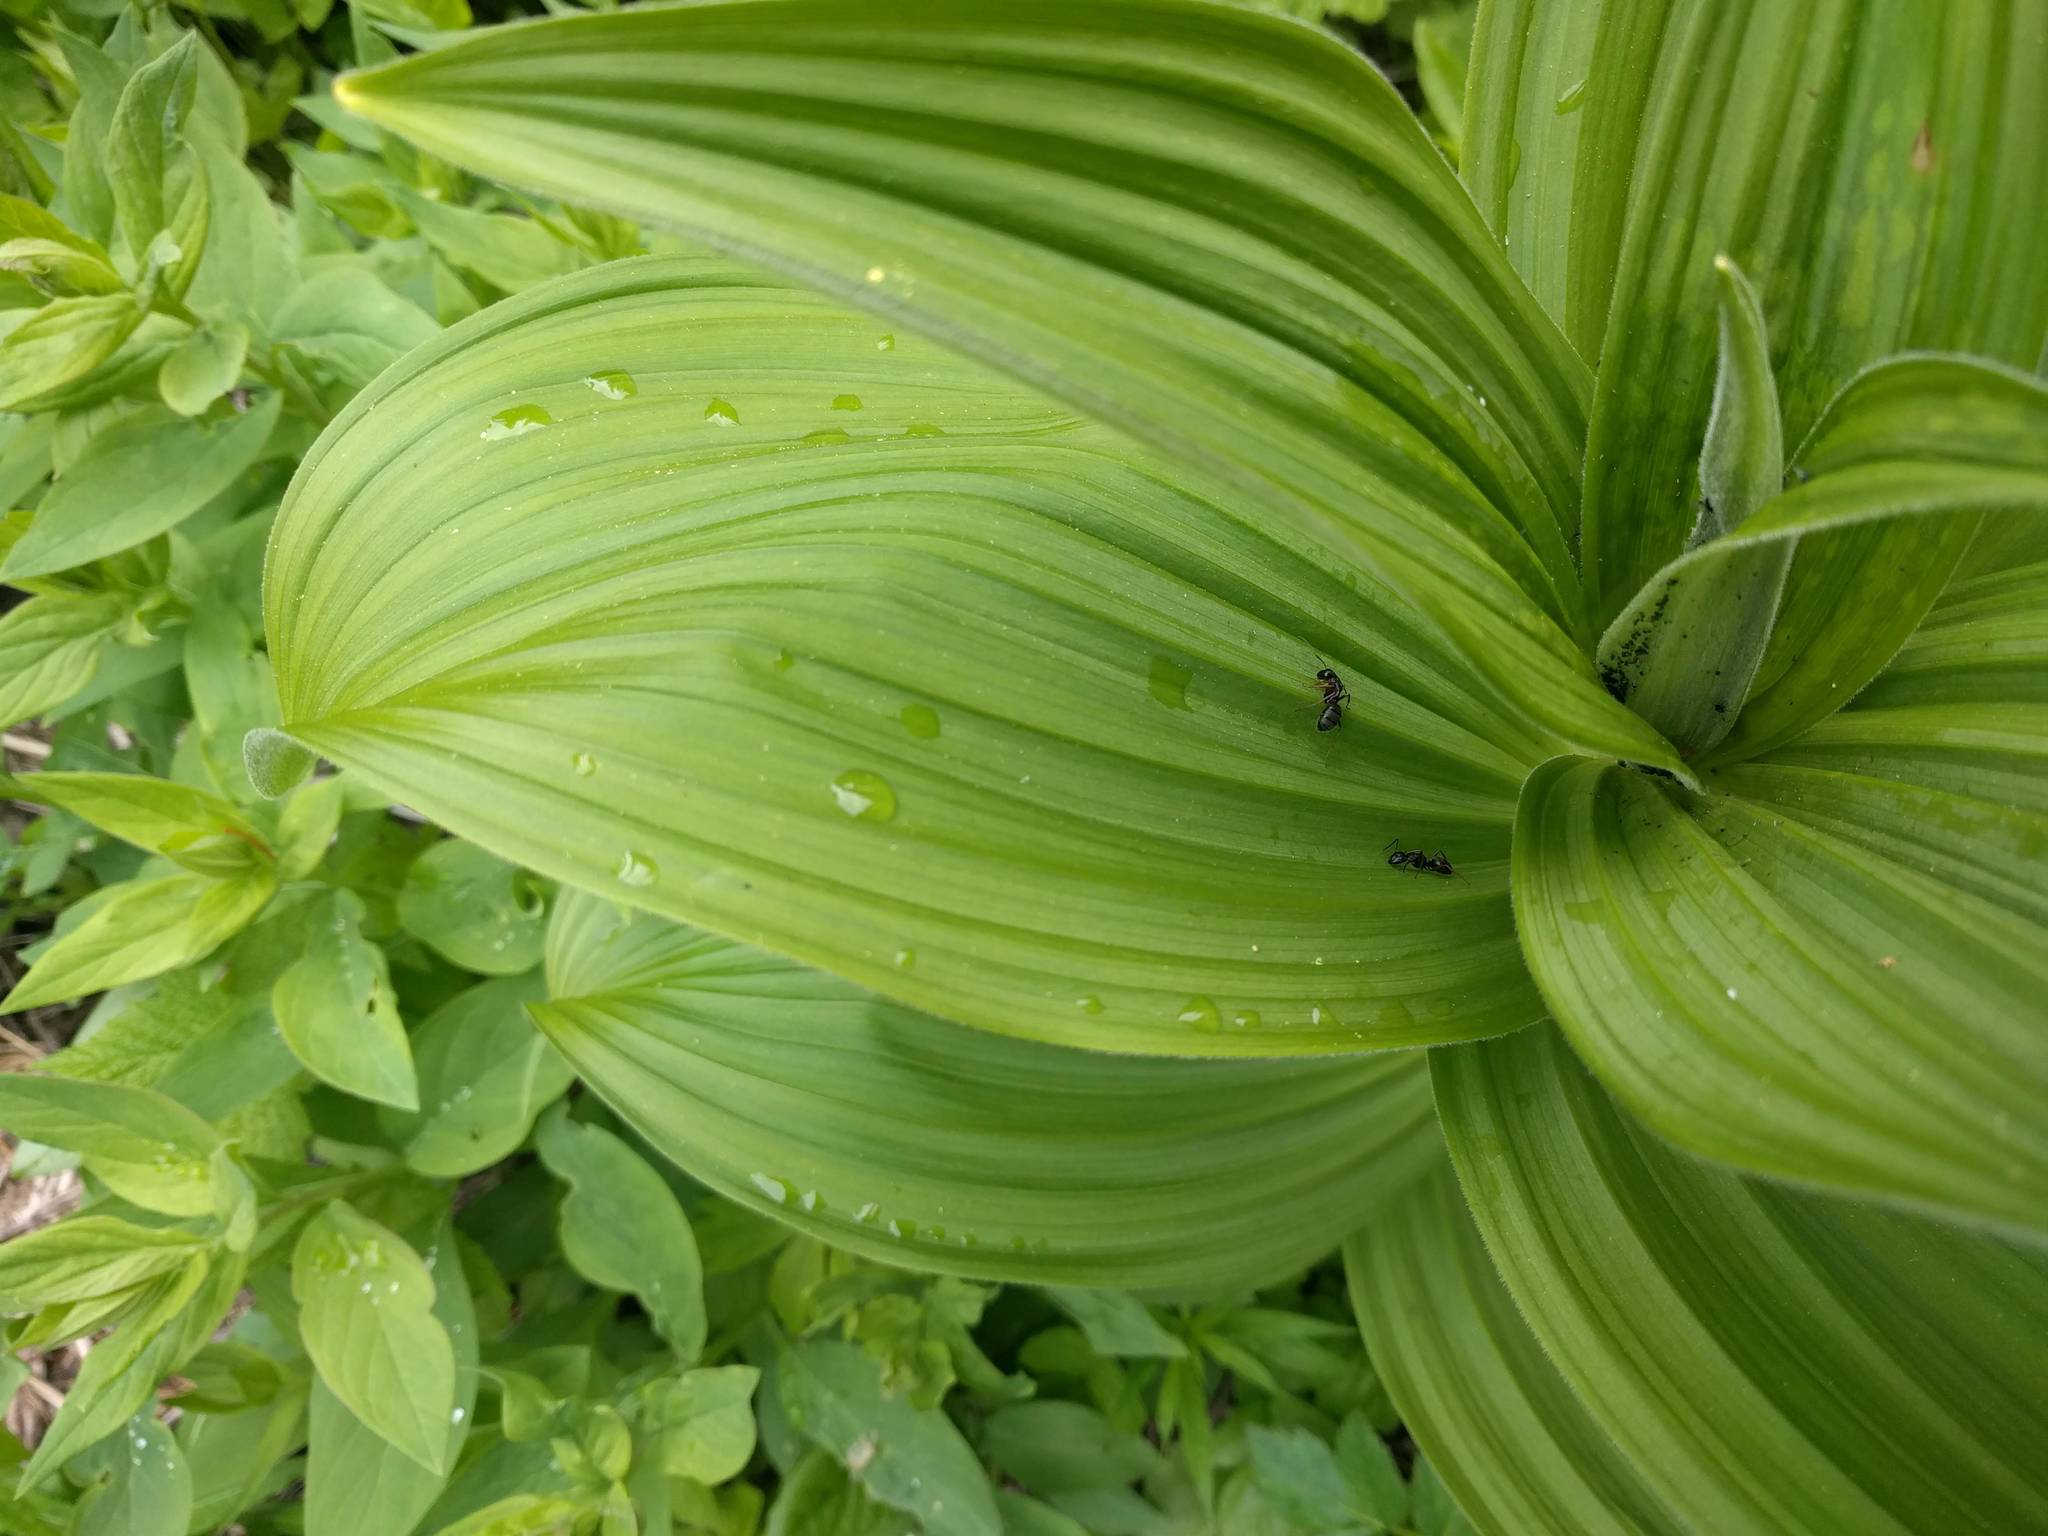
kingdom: Plantae
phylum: Tracheophyta
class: Liliopsida
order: Liliales
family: Melanthiaceae
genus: Veratrum
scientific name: Veratrum viride
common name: American false hellebore
